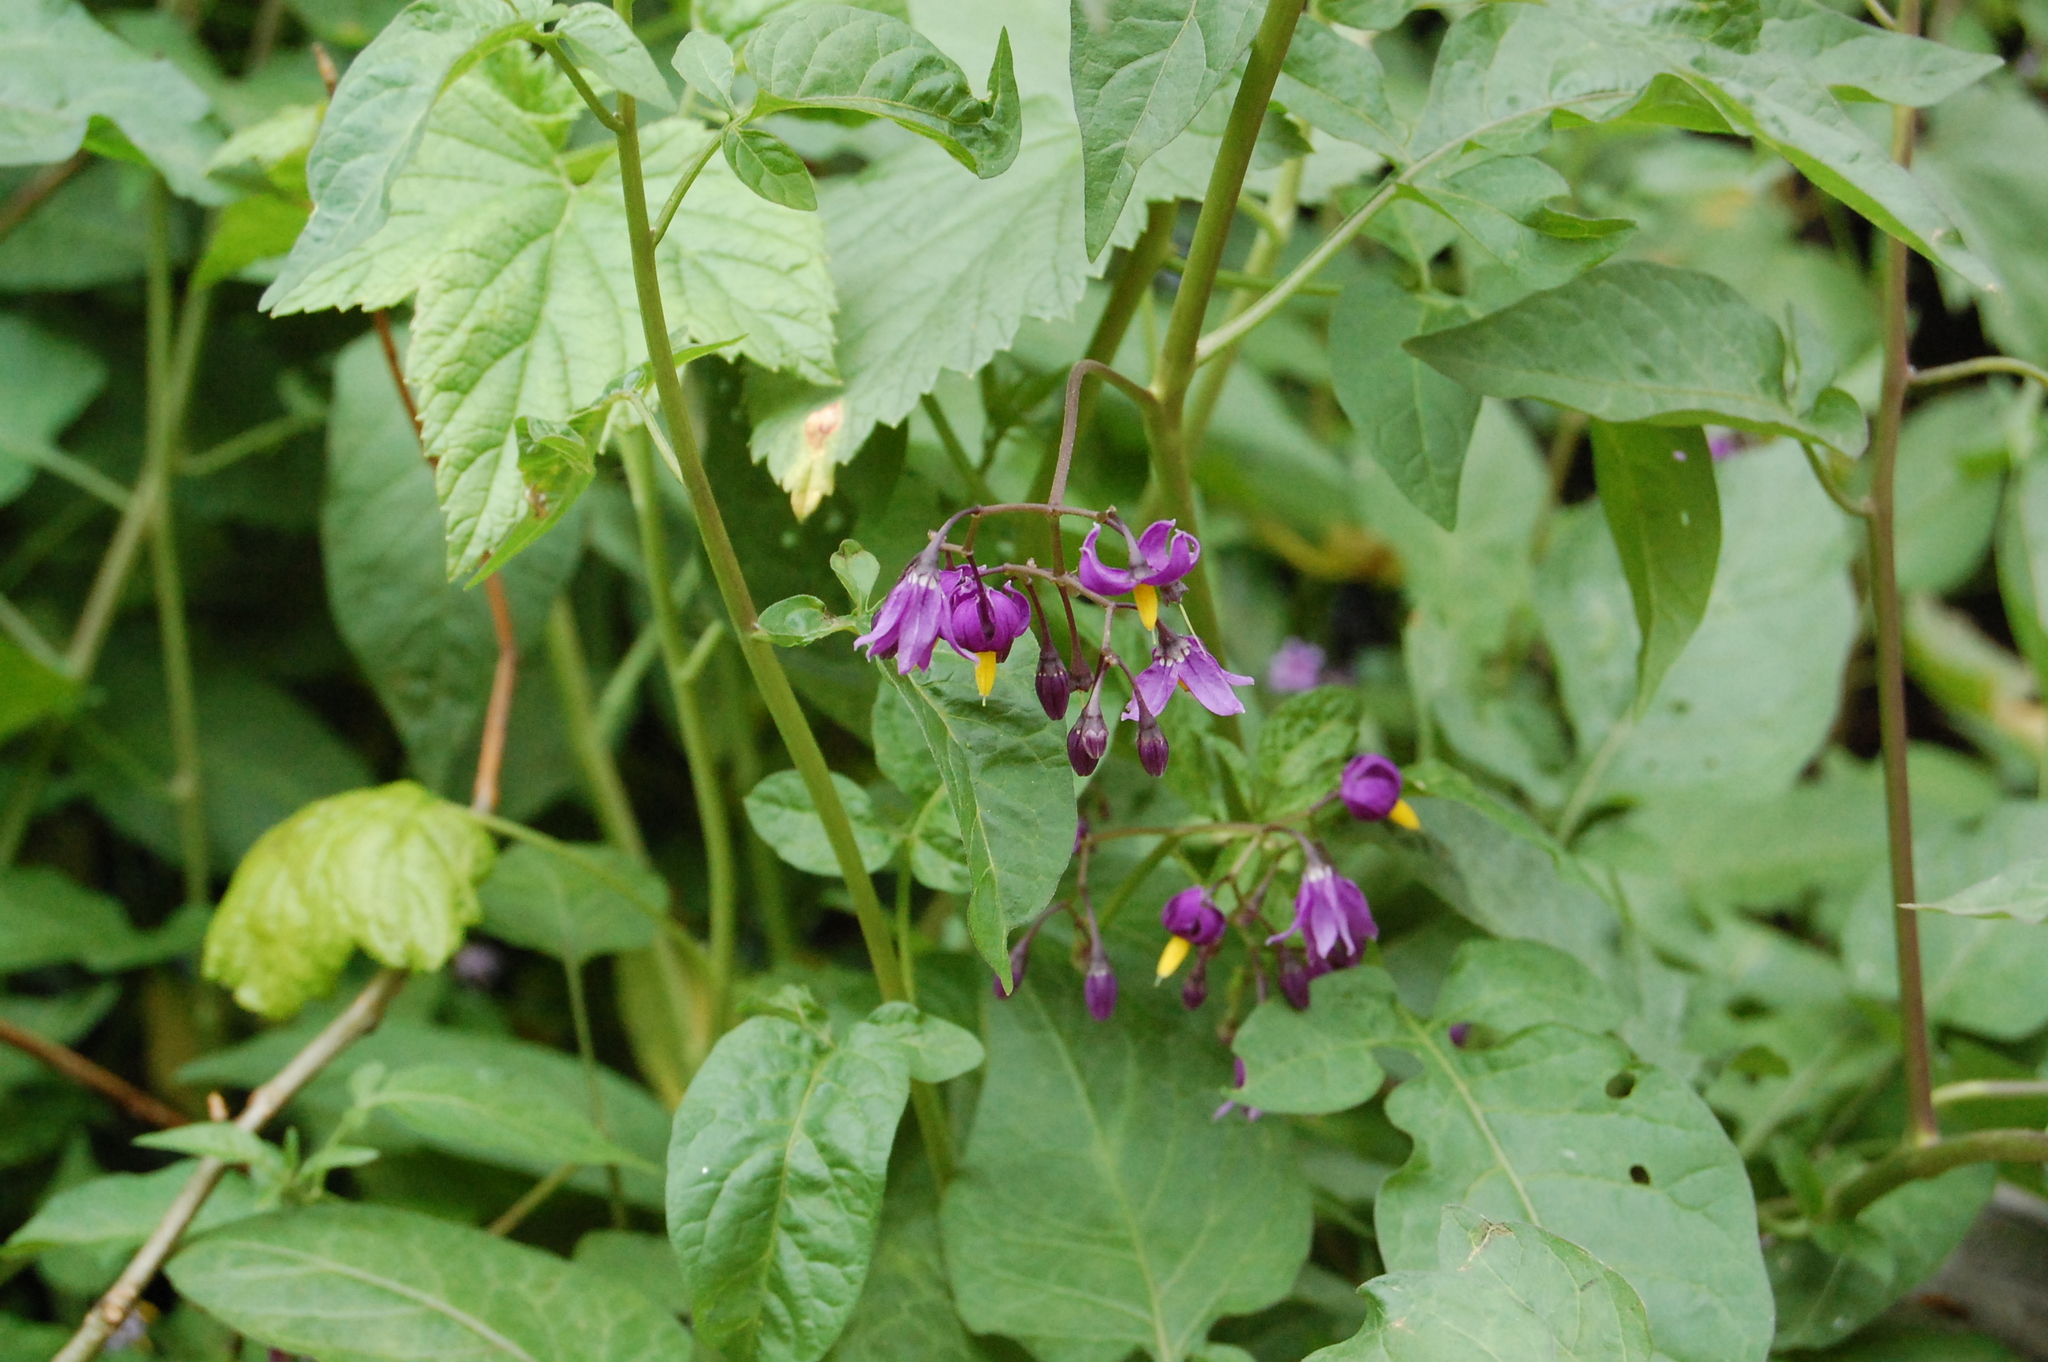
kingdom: Plantae
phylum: Tracheophyta
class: Magnoliopsida
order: Solanales
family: Solanaceae
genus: Solanum
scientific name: Solanum dulcamara
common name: Climbing nightshade
